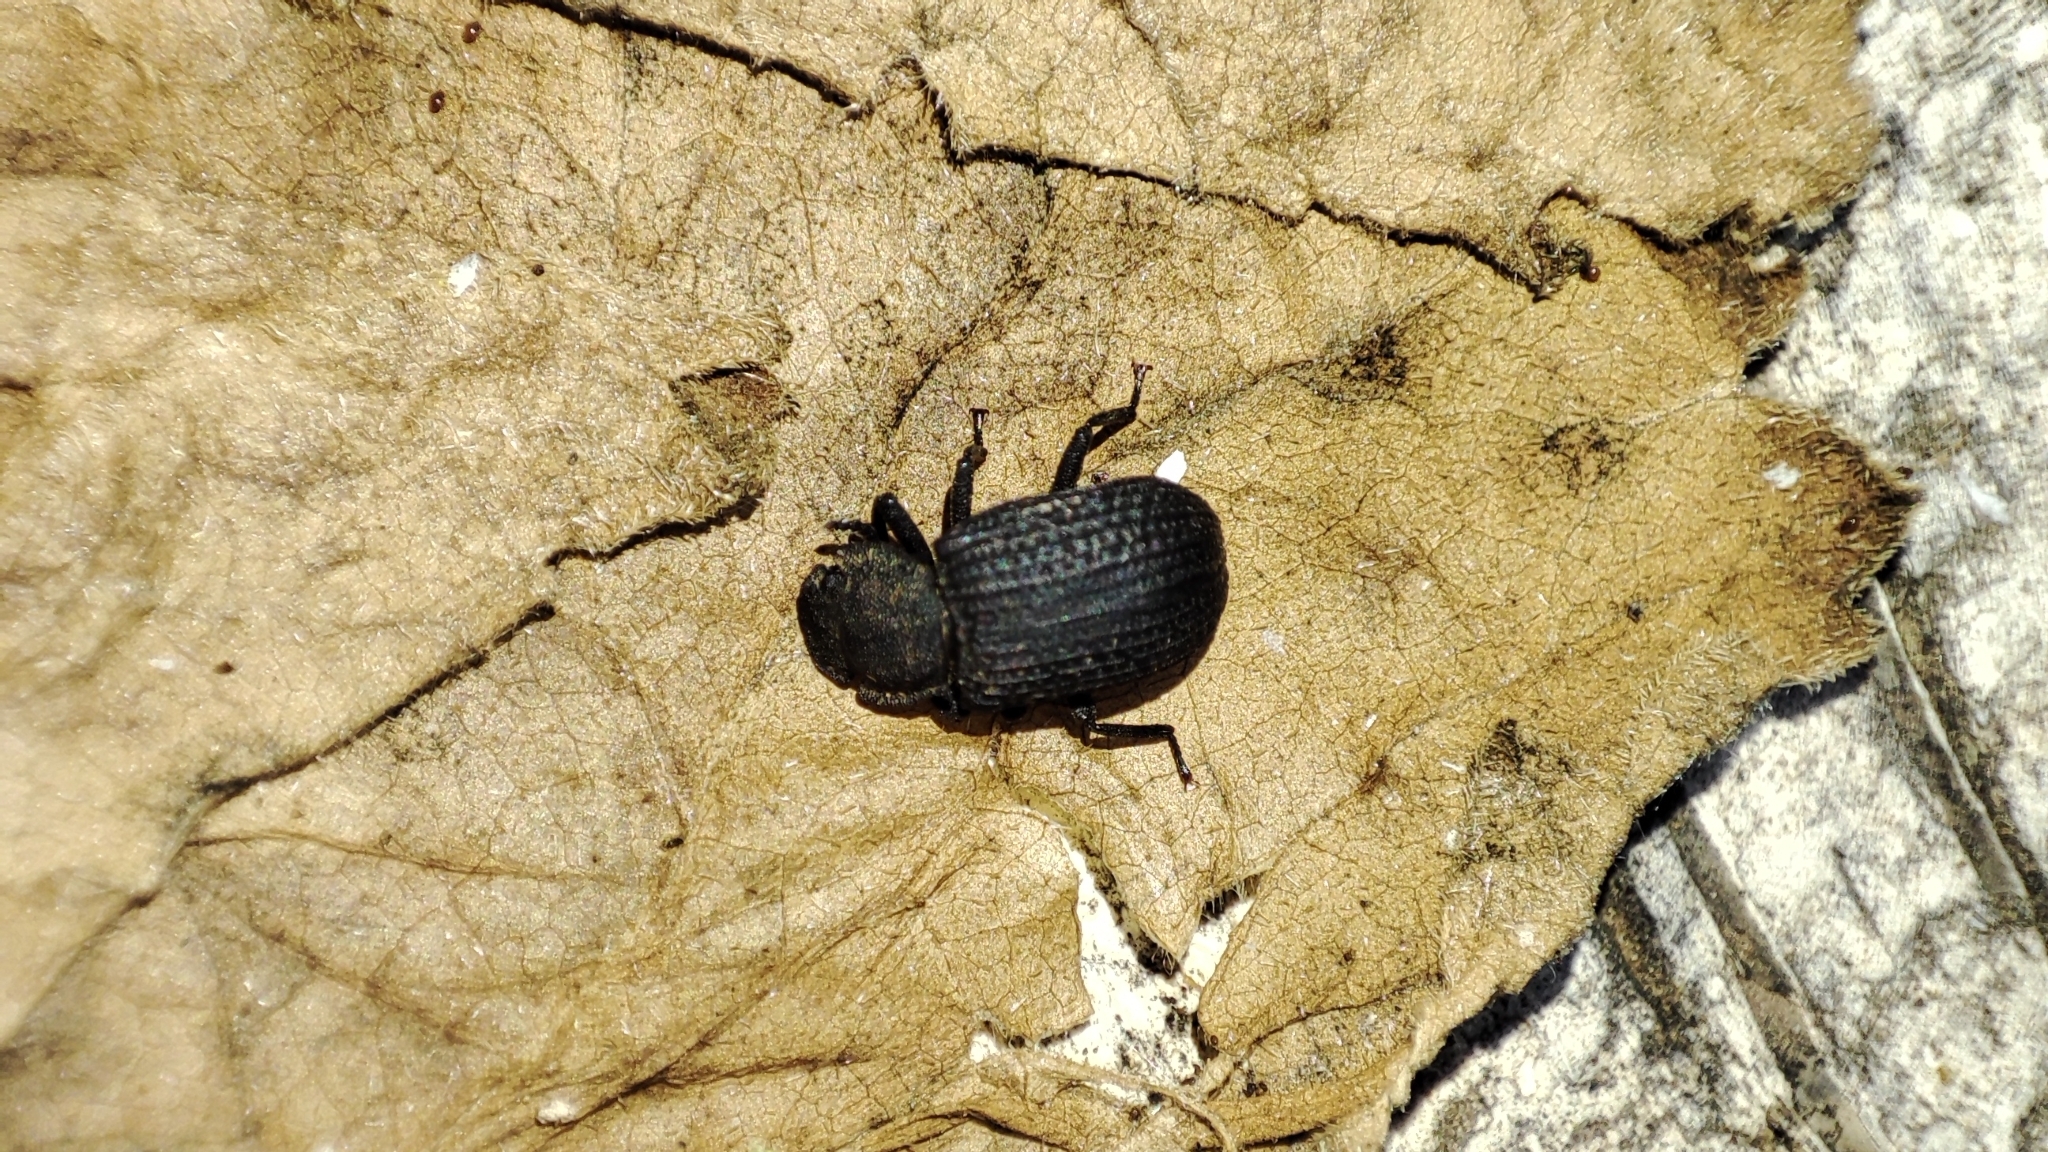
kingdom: Animalia
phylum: Arthropoda
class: Insecta
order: Coleoptera
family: Tenebrionidae
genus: Bolitophagus
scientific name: Bolitophagus reticulatus
